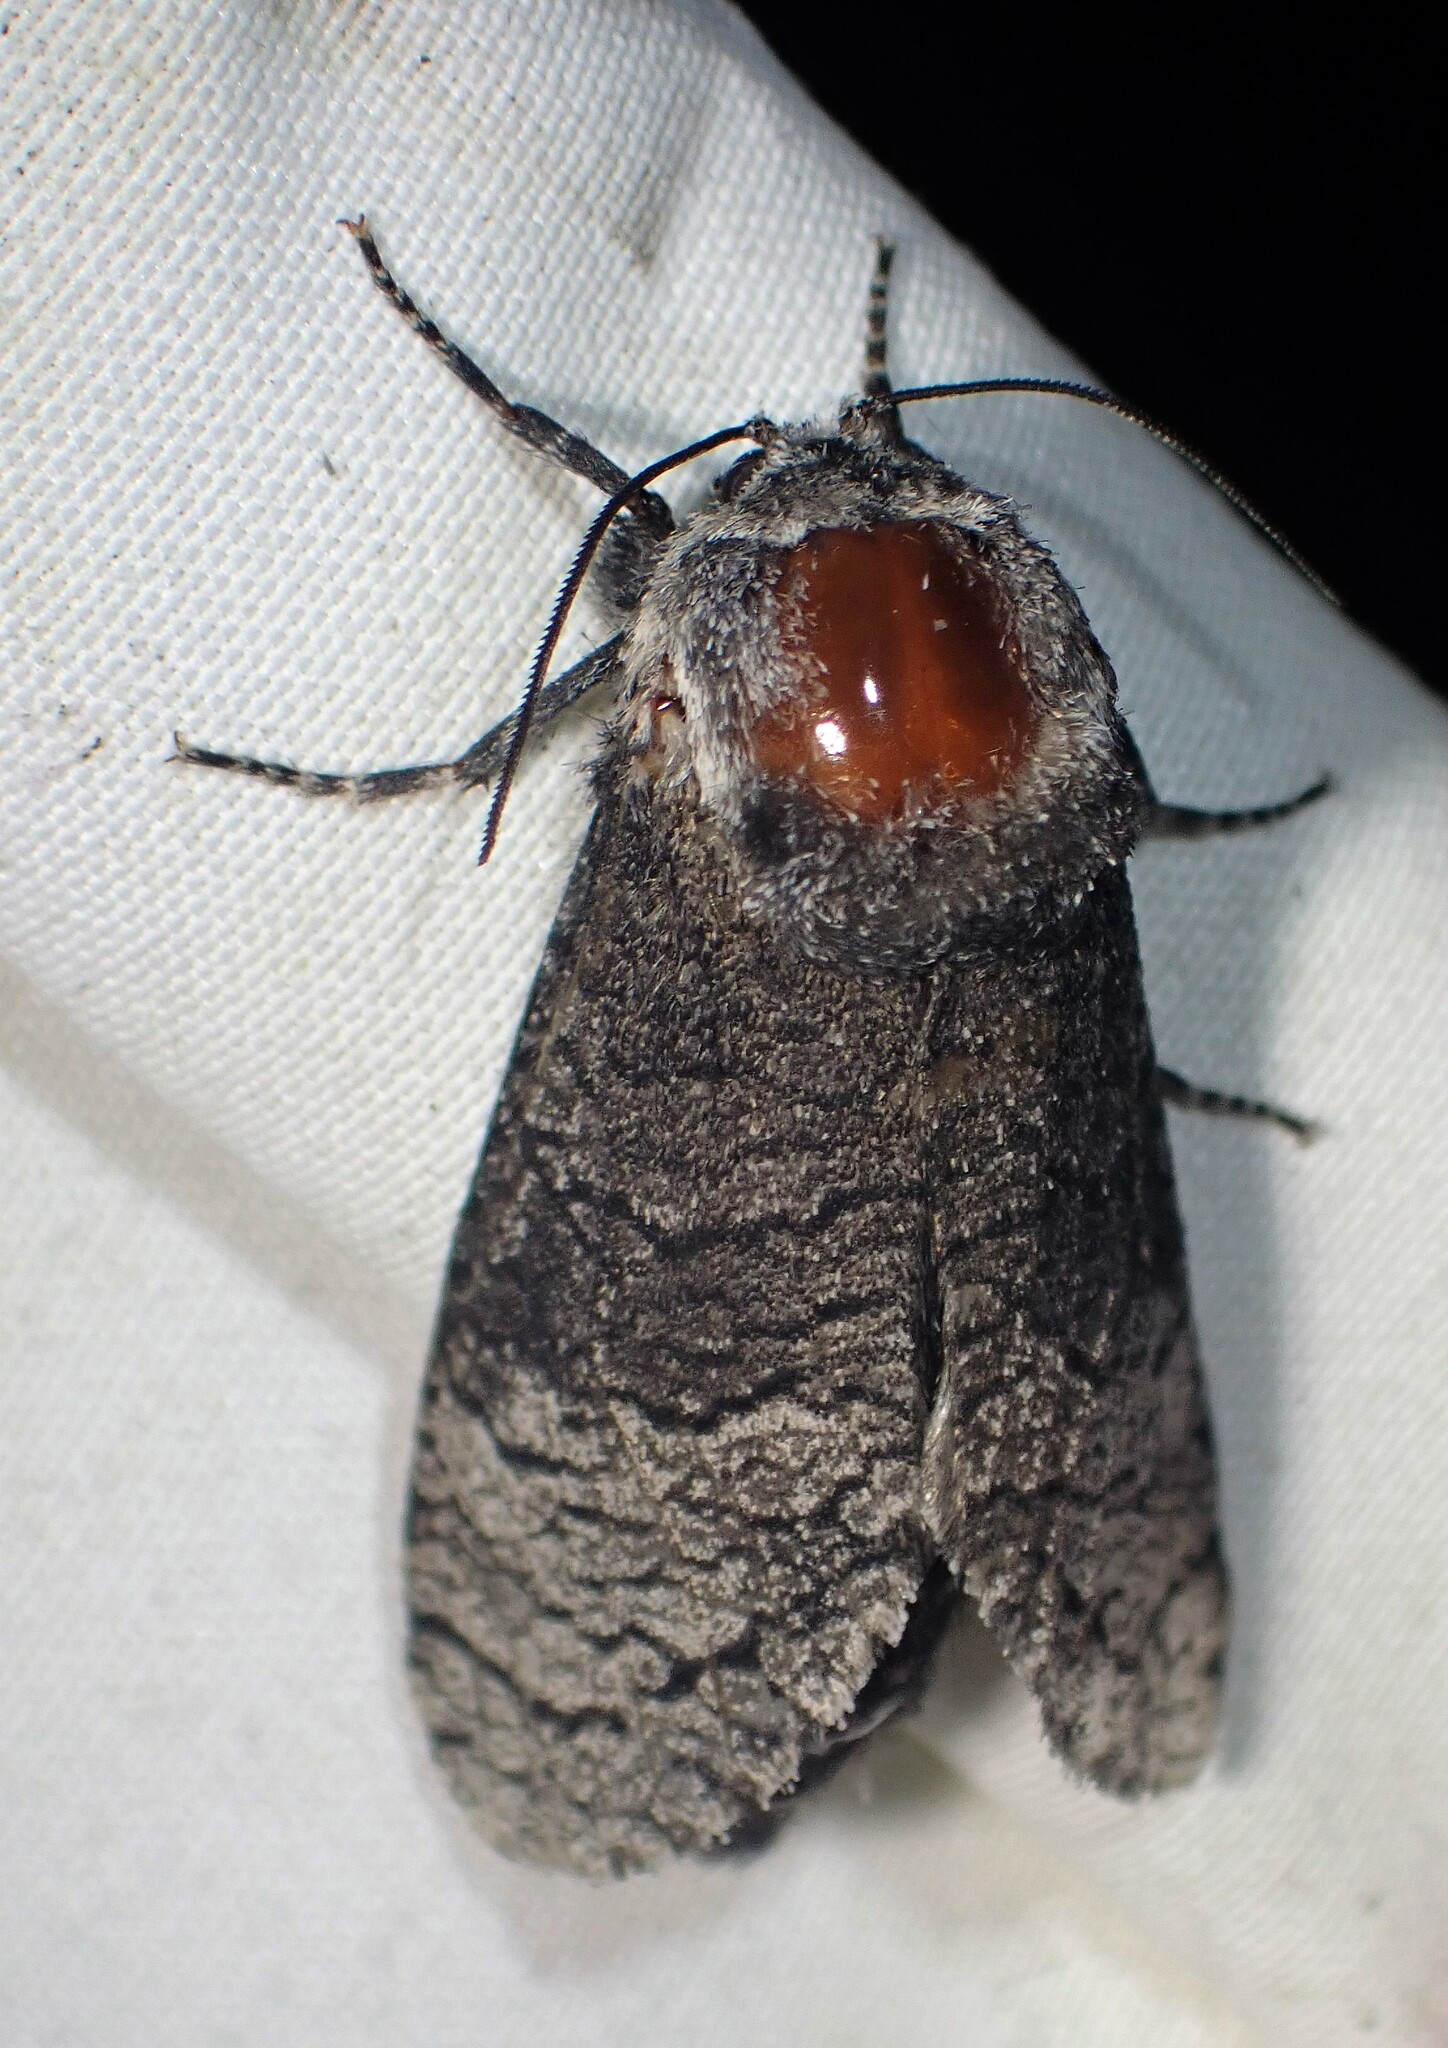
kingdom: Animalia
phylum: Arthropoda
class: Insecta
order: Lepidoptera
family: Cossidae
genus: Acossus
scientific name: Acossus centerensis
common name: Poplar carpenterworm moth
